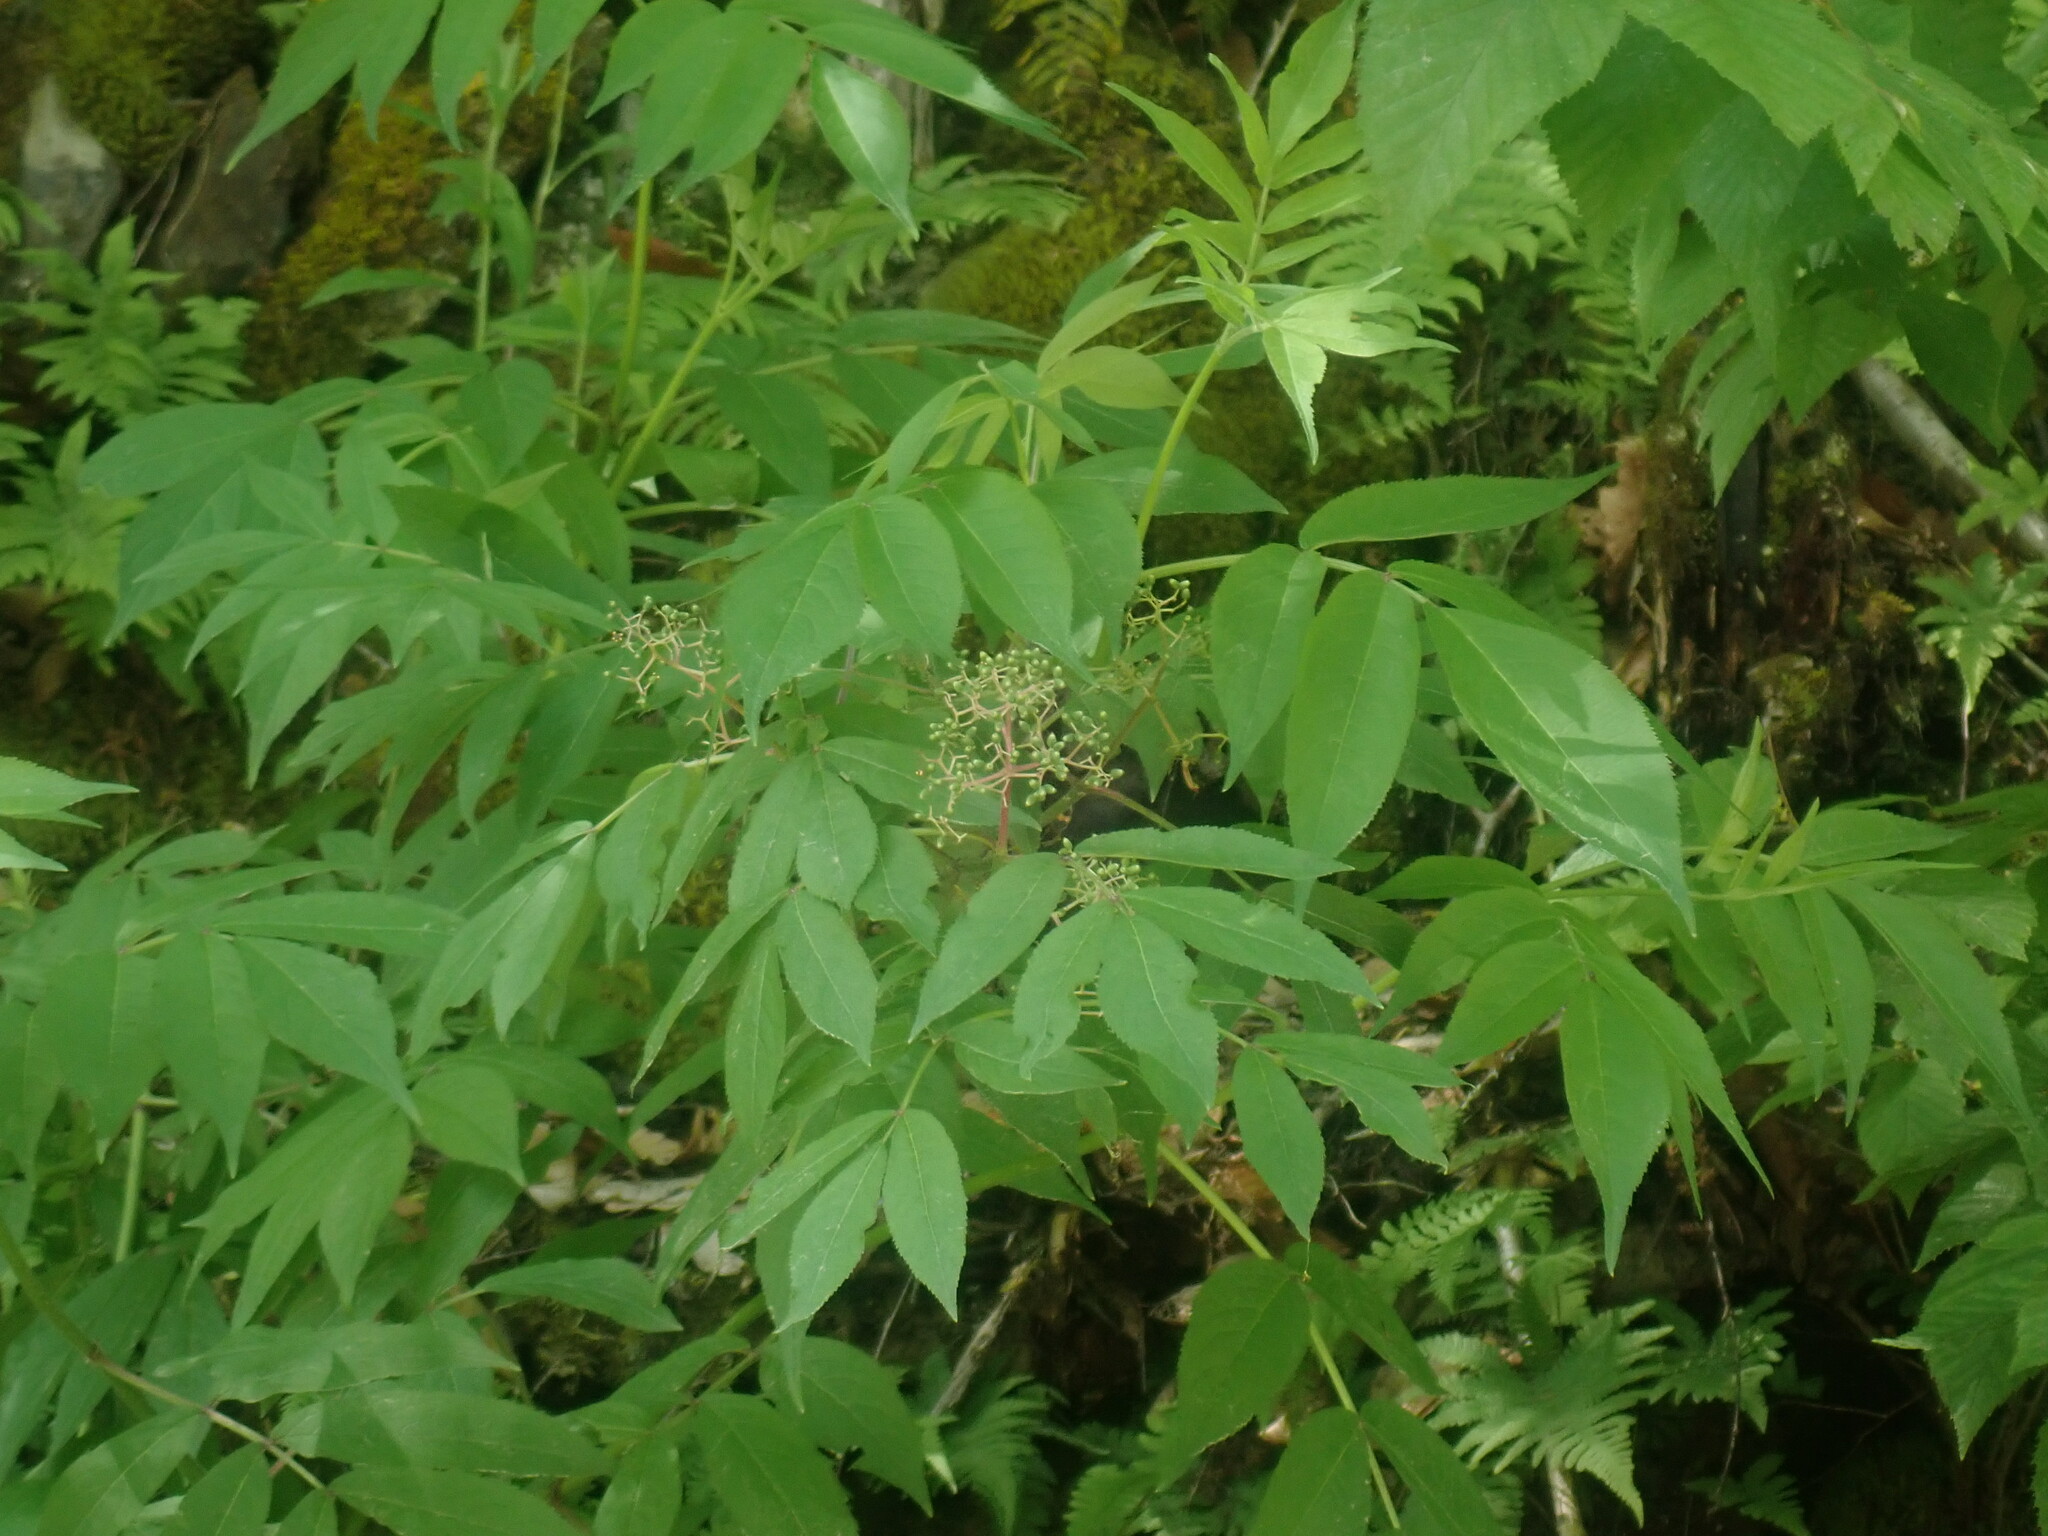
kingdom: Plantae
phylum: Tracheophyta
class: Magnoliopsida
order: Dipsacales
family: Viburnaceae
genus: Sambucus
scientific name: Sambucus racemosa
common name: Red-berried elder
